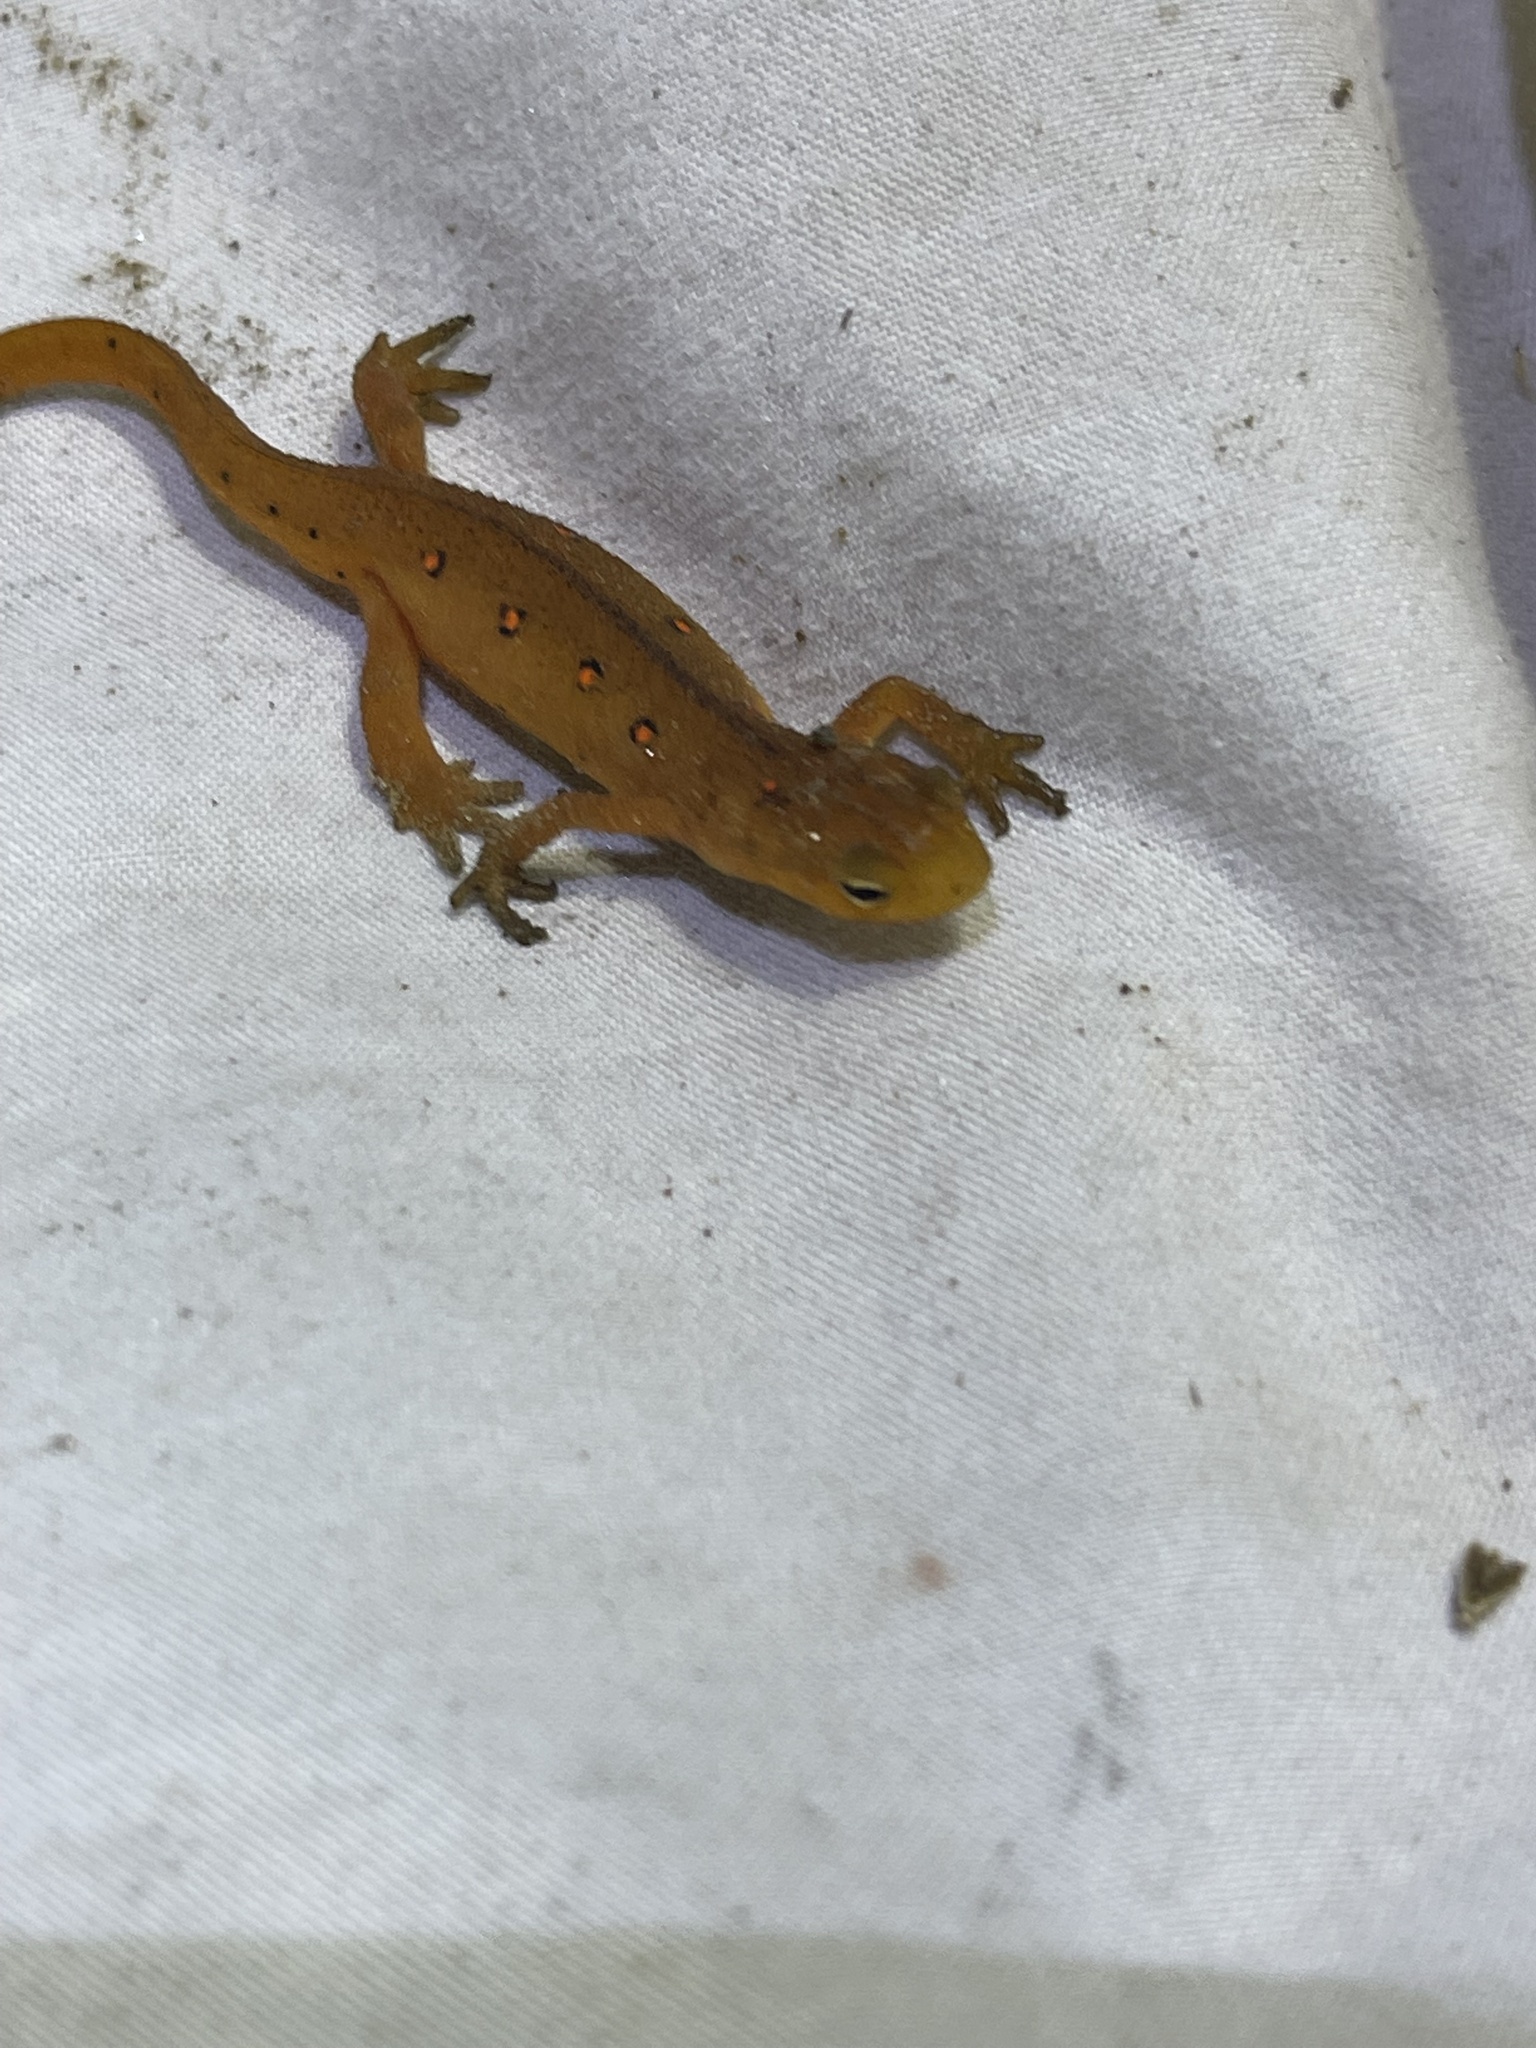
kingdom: Animalia
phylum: Chordata
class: Amphibia
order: Caudata
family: Salamandridae
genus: Notophthalmus
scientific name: Notophthalmus viridescens
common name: Eastern newt
